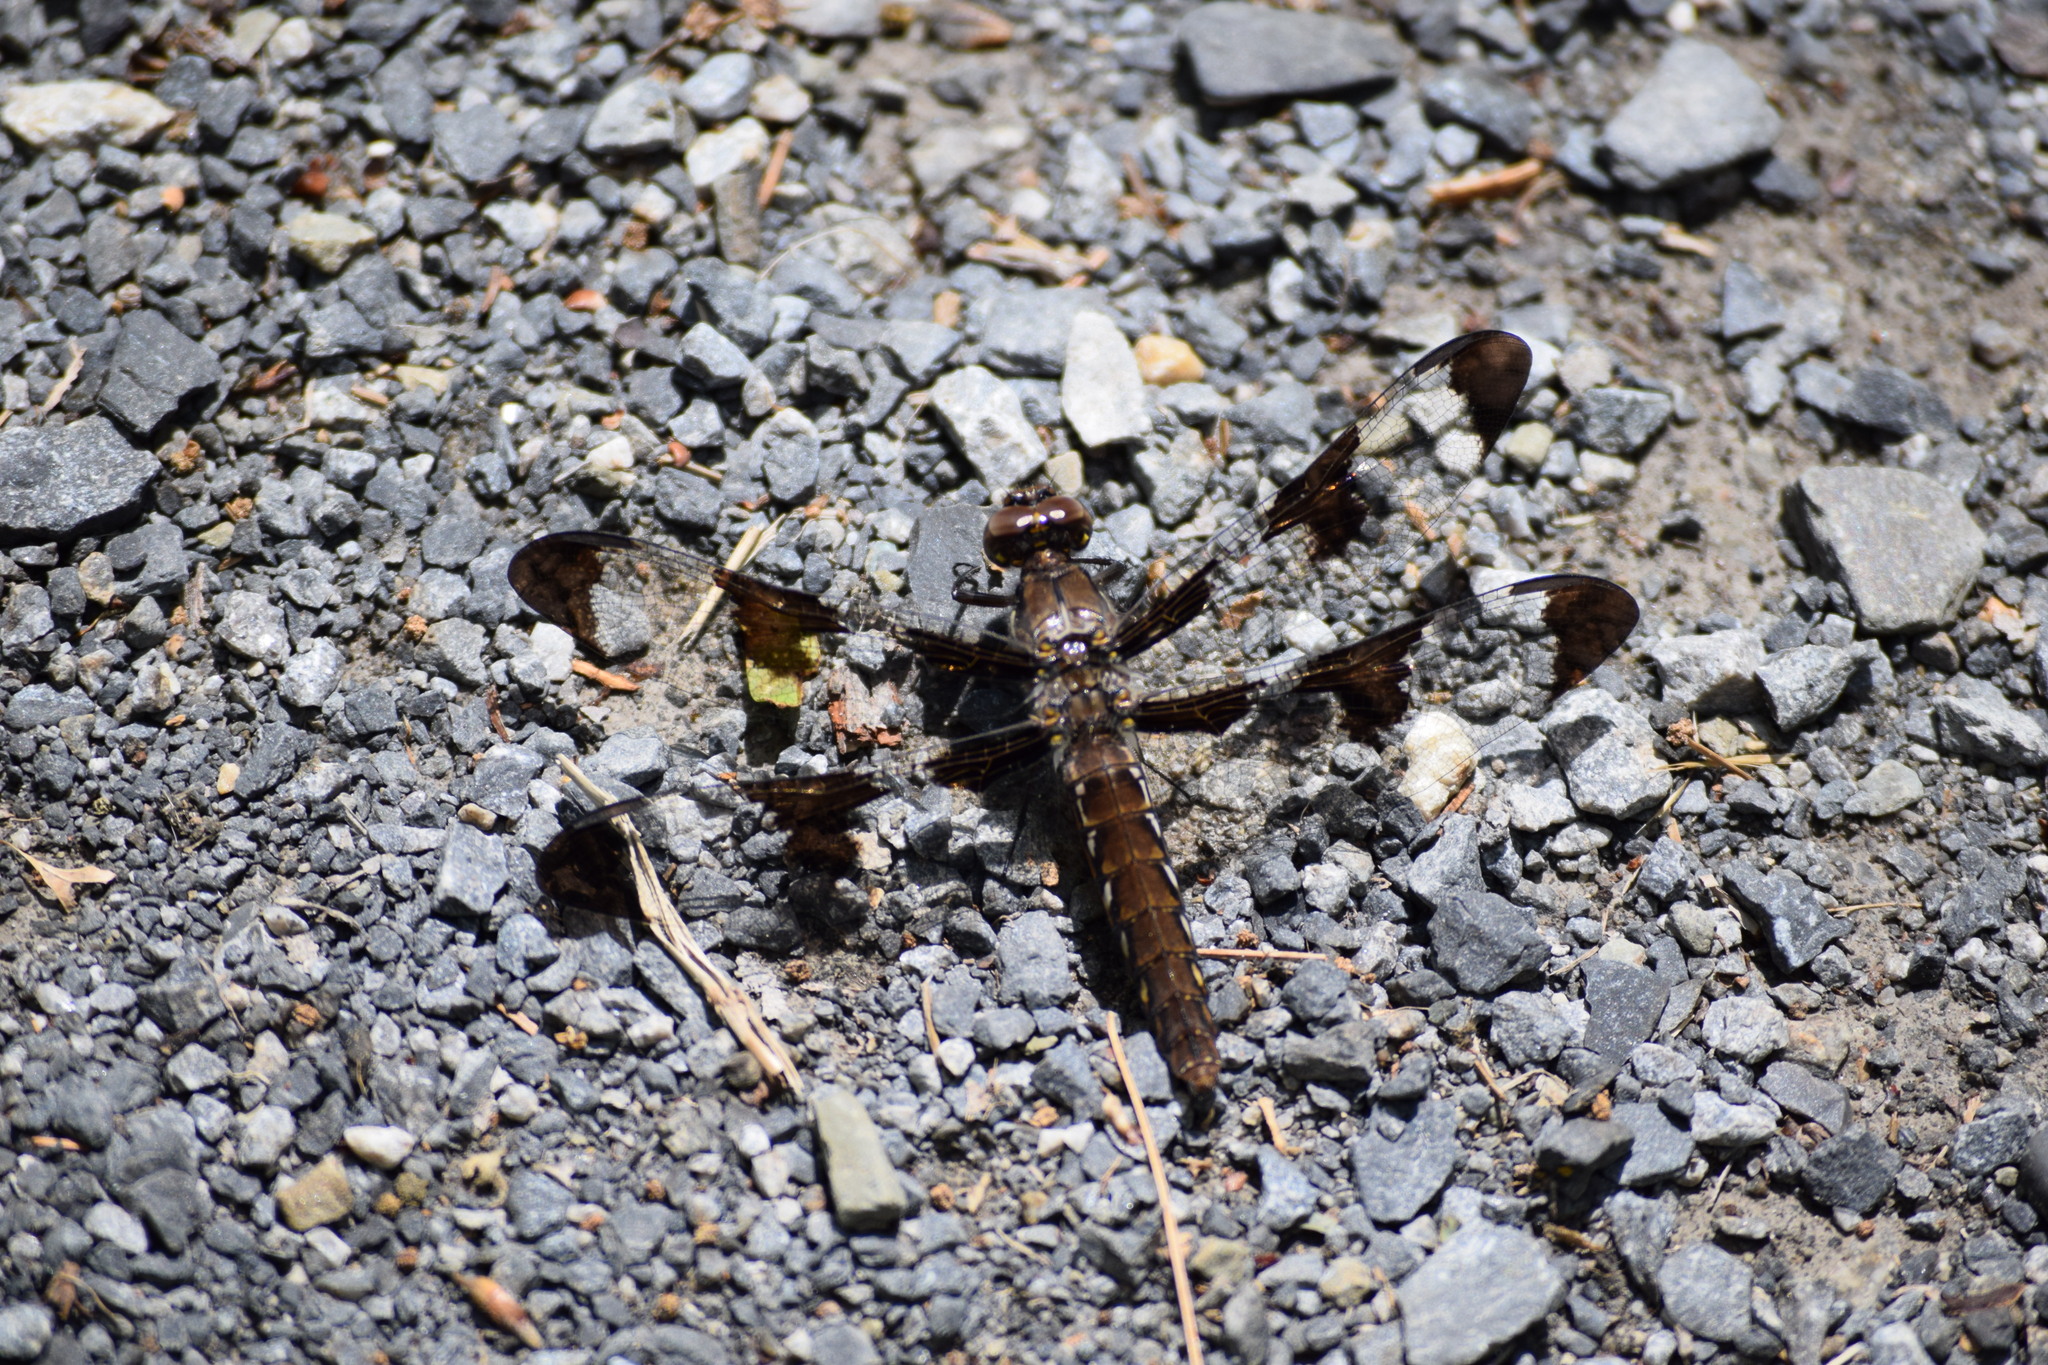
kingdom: Animalia
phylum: Arthropoda
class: Insecta
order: Odonata
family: Libellulidae
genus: Plathemis
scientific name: Plathemis lydia
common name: Common whitetail
